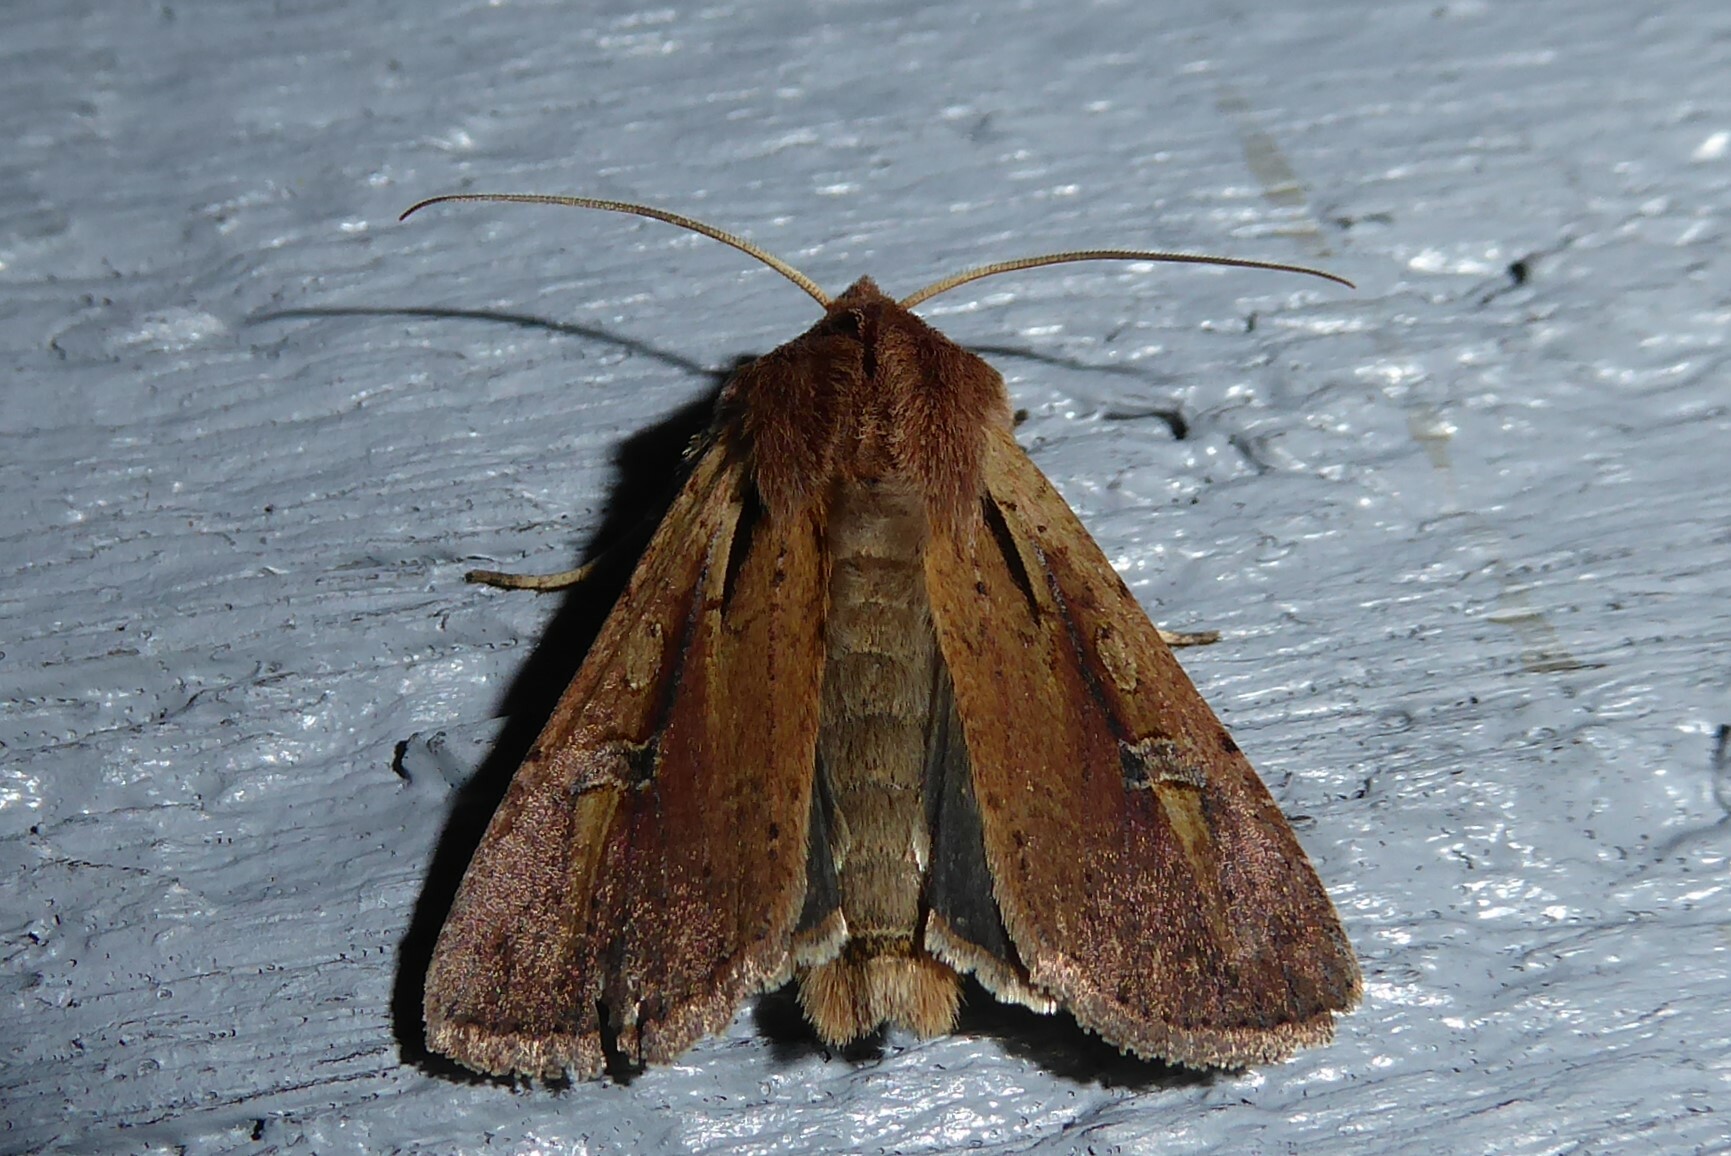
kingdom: Animalia
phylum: Arthropoda
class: Insecta
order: Lepidoptera
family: Noctuidae
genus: Ichneutica
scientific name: Ichneutica atristriga
